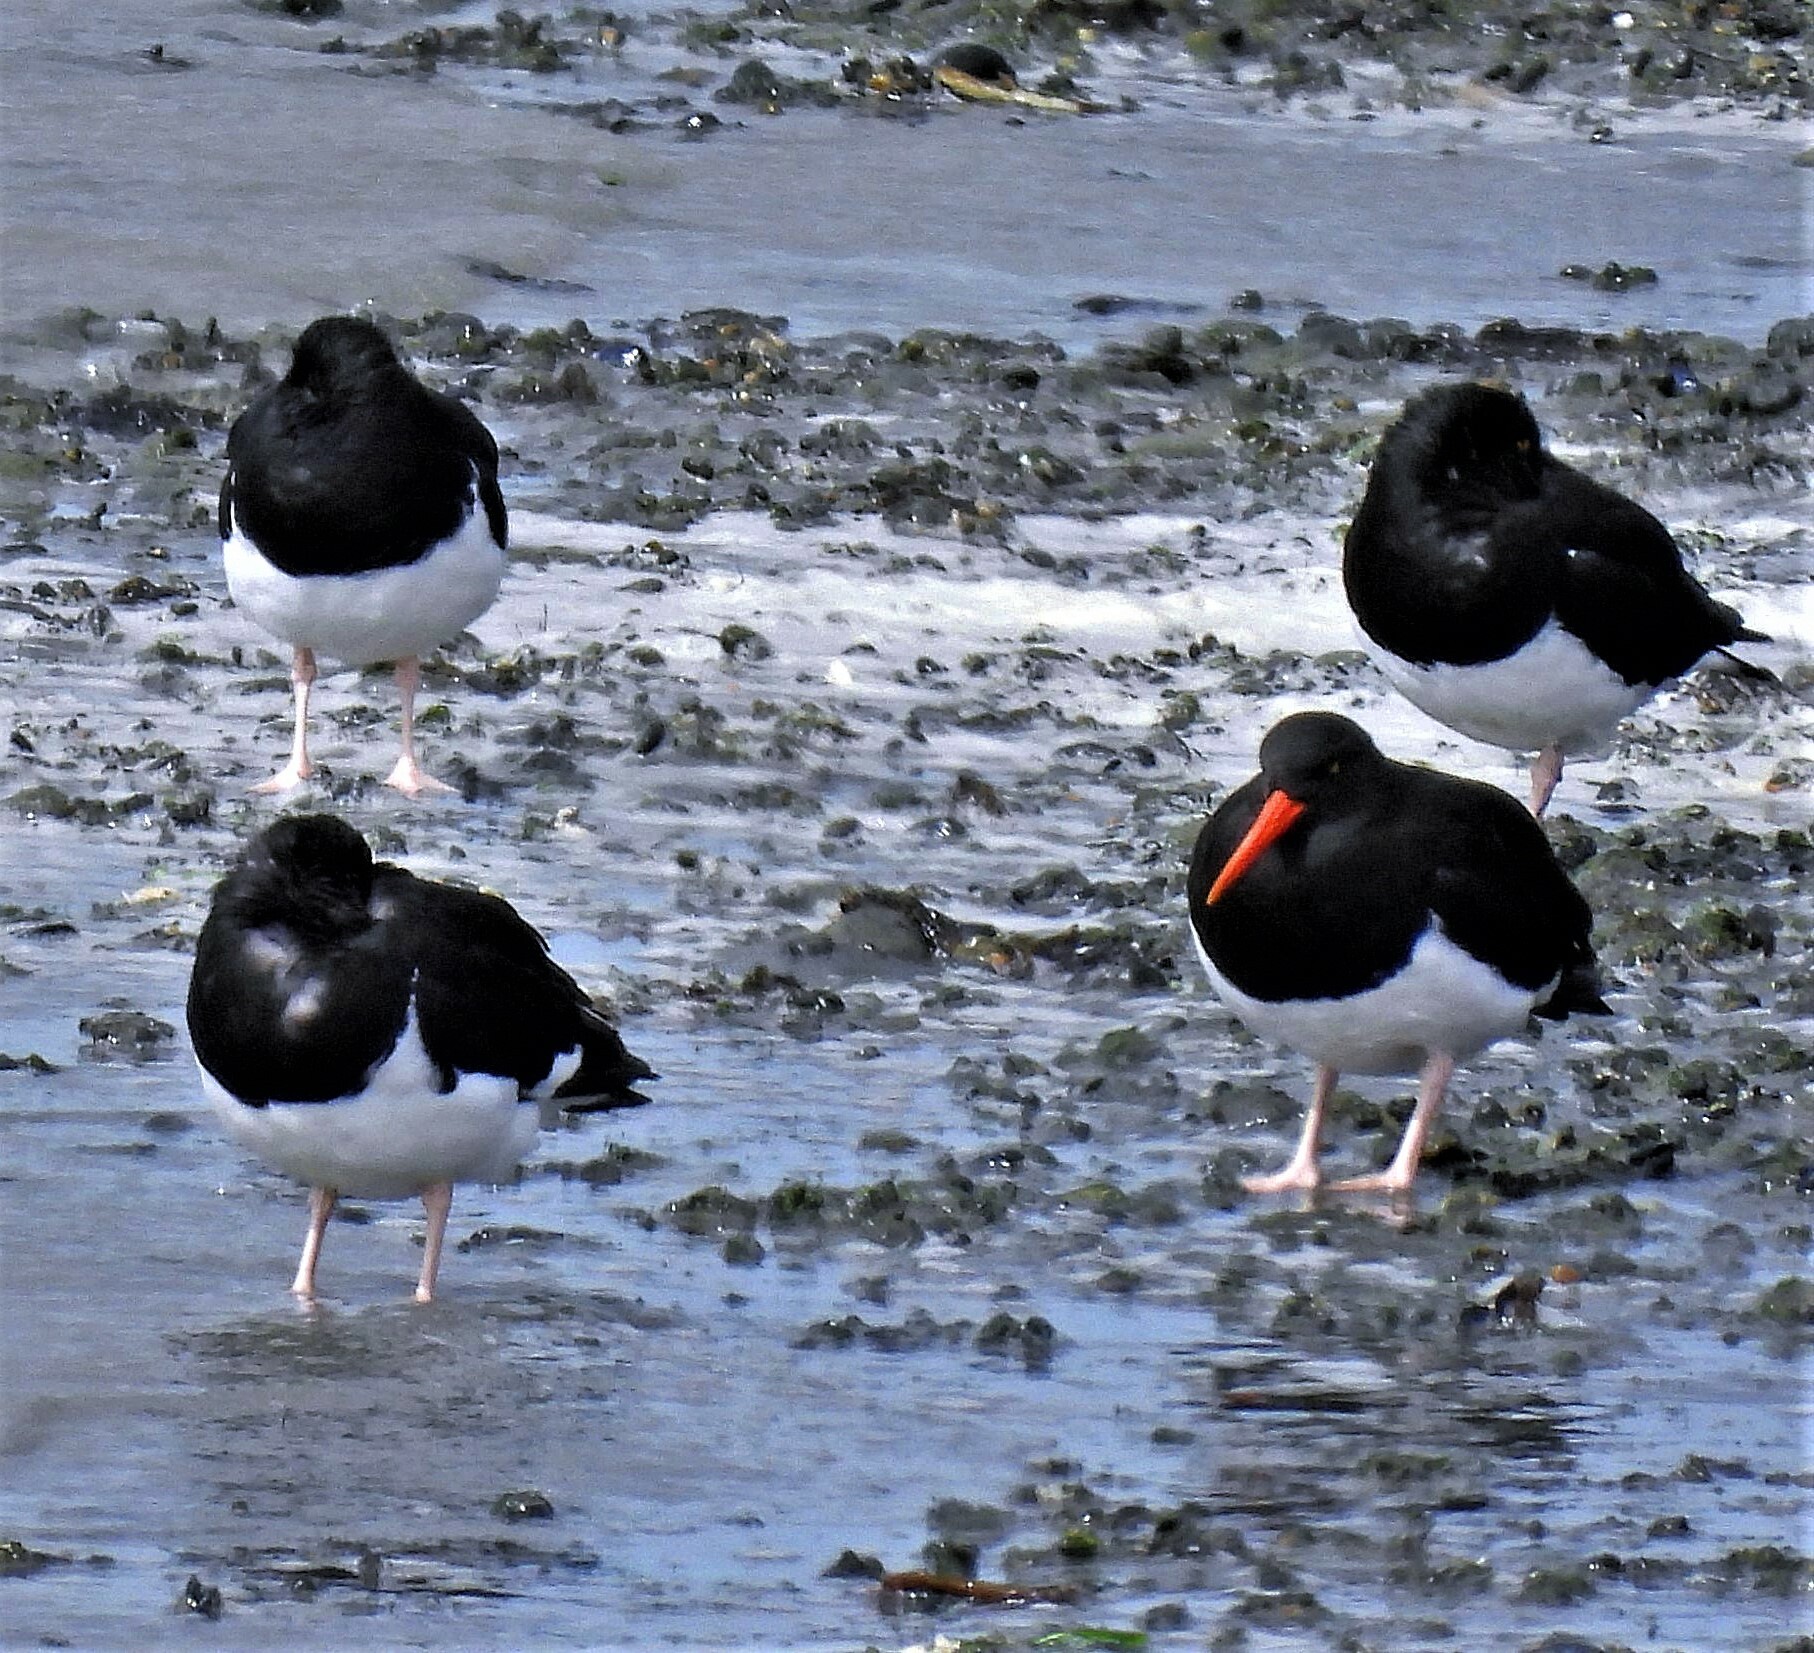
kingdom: Animalia
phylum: Chordata
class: Aves
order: Charadriiformes
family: Haematopodidae
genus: Haematopus
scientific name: Haematopus leucopodus
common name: Magellanic oystercatcher
